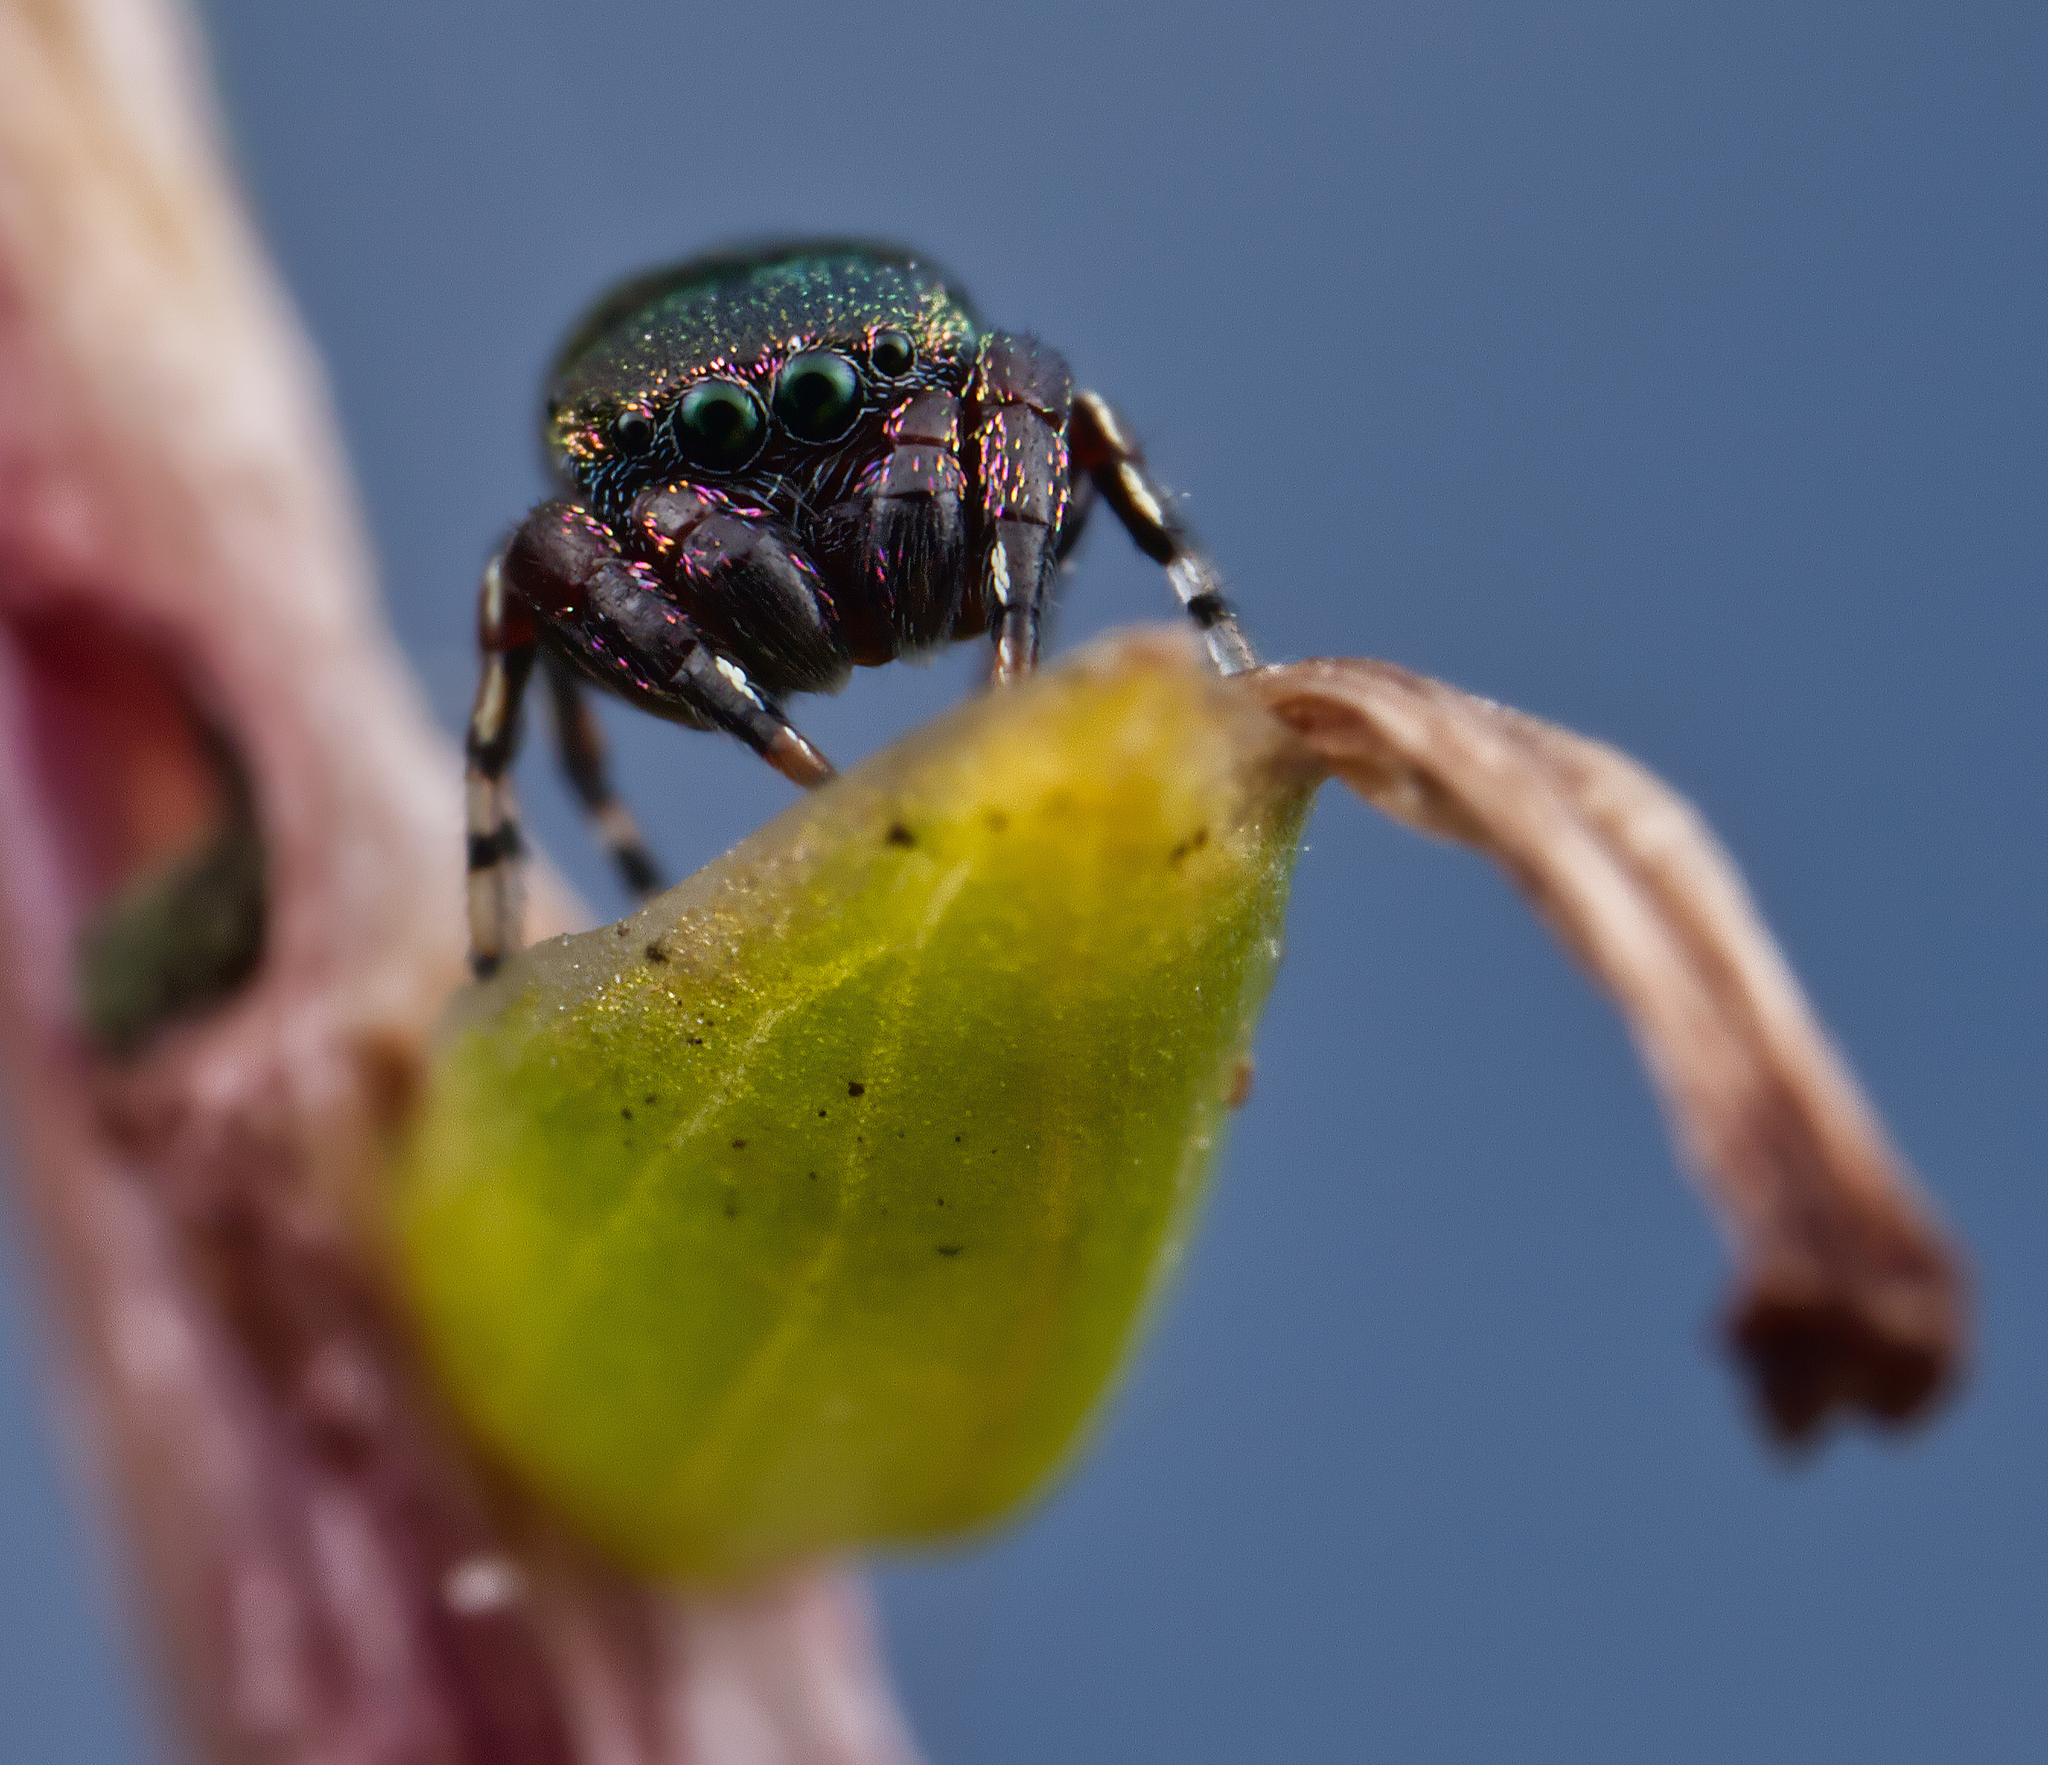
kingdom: Animalia
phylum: Arthropoda
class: Arachnida
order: Araneae
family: Salticidae
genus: Sassacus
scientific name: Sassacus cyaneus
